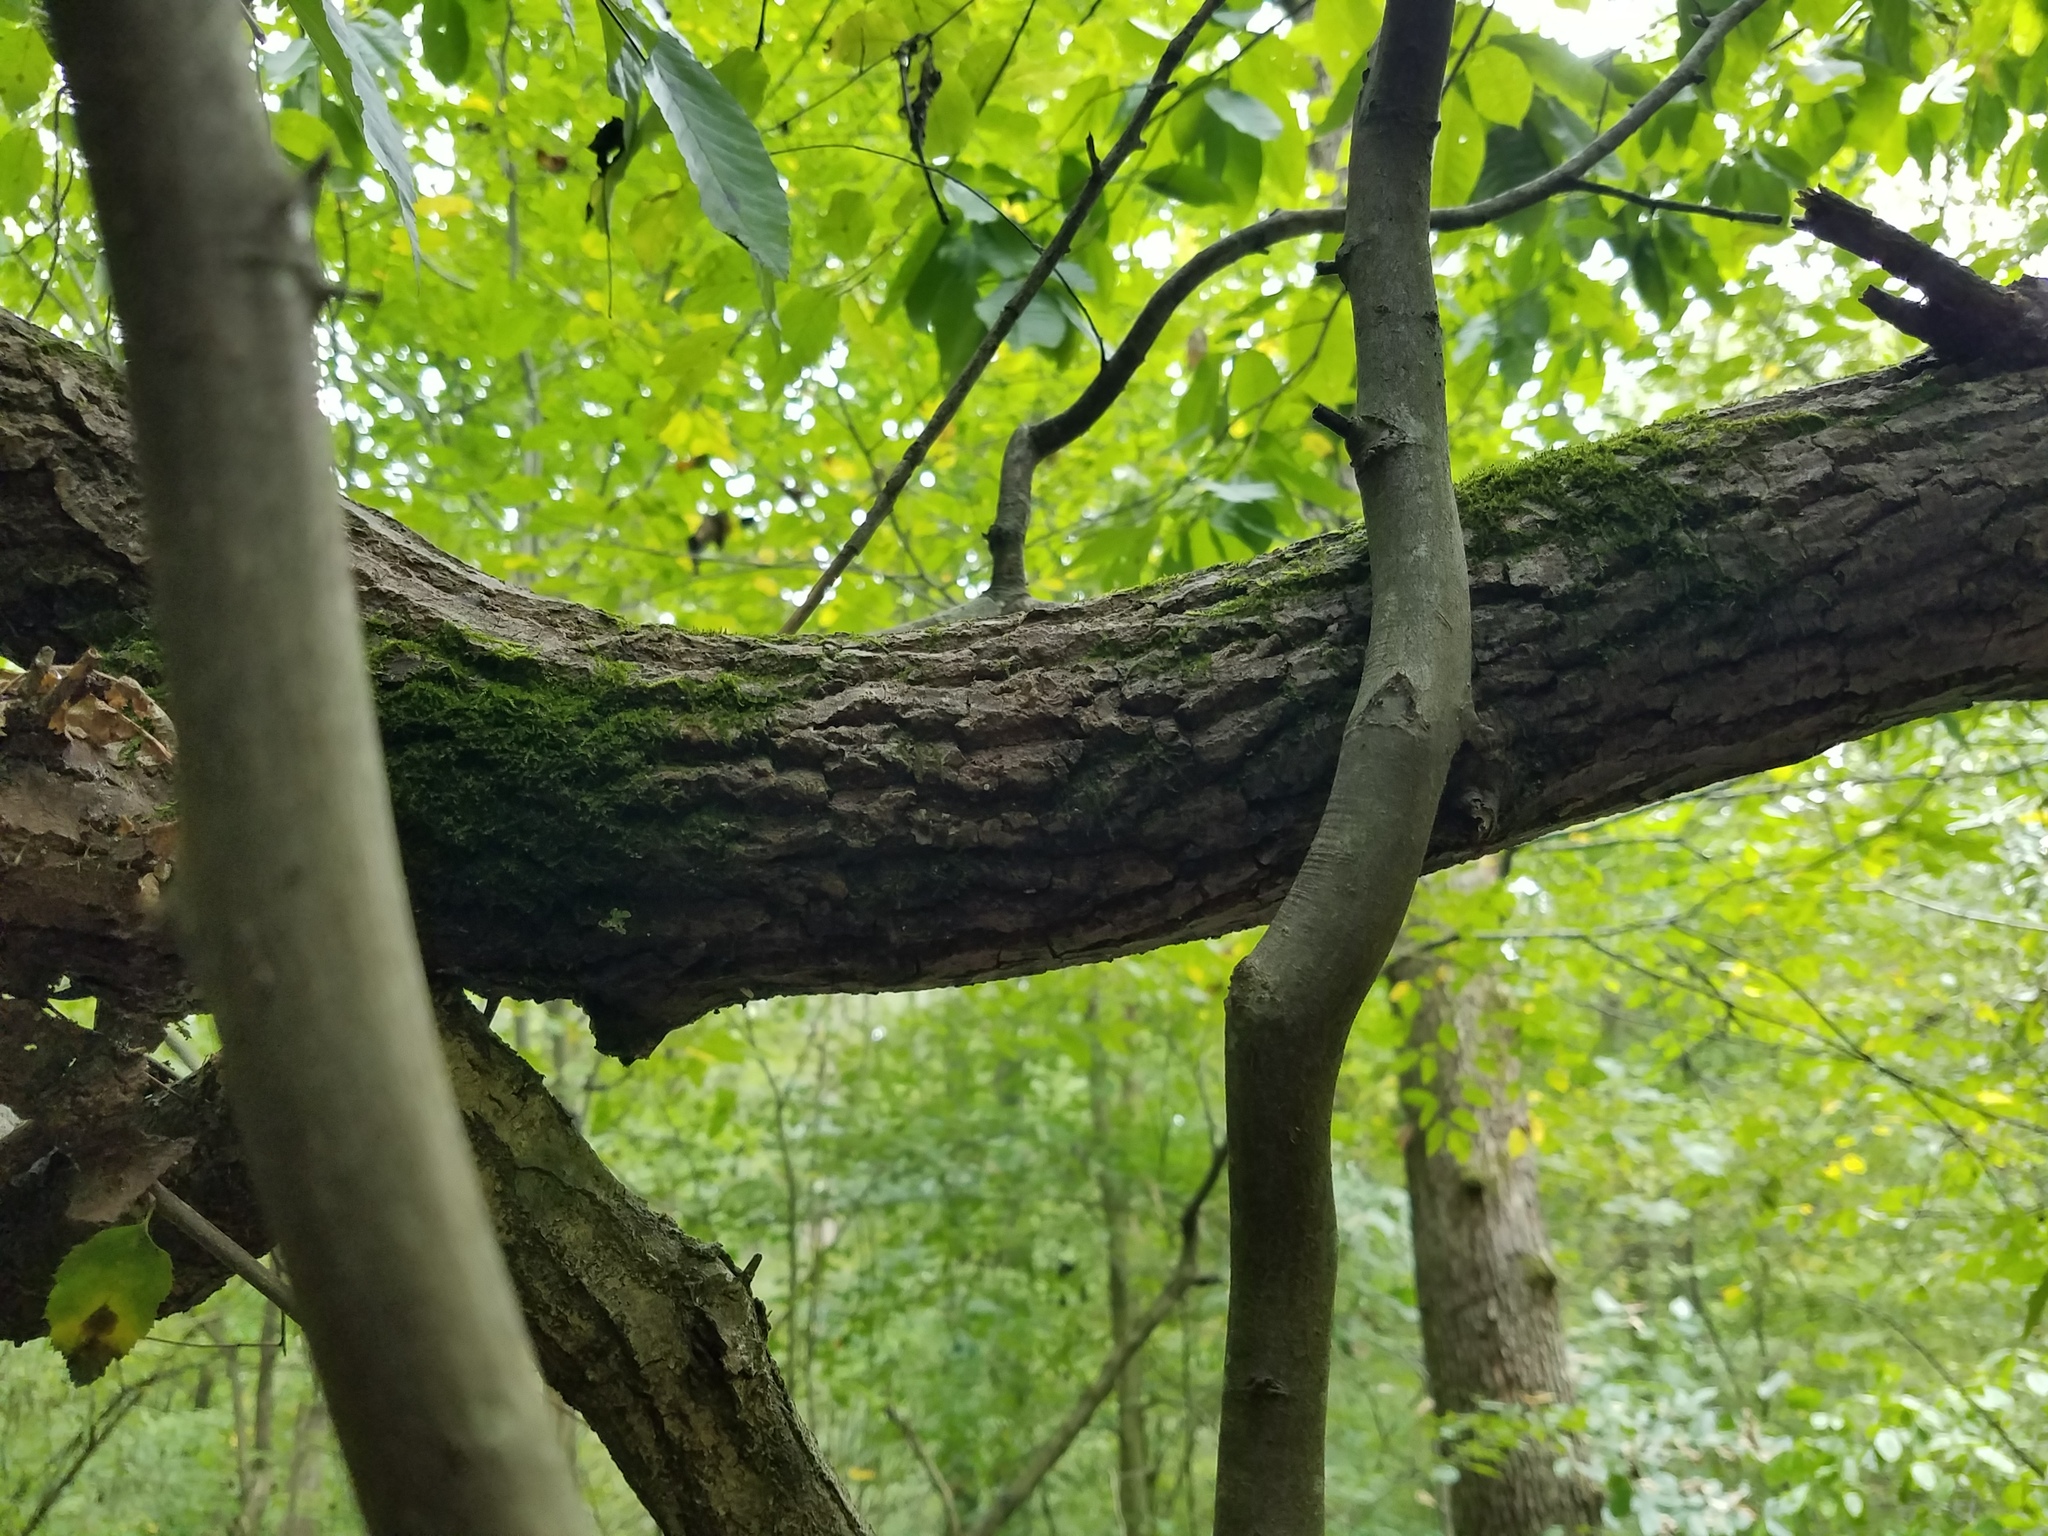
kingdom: Plantae
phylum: Tracheophyta
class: Magnoliopsida
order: Ericales
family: Ericaceae
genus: Oxydendrum
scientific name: Oxydendrum arboreum
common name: Sourwood
